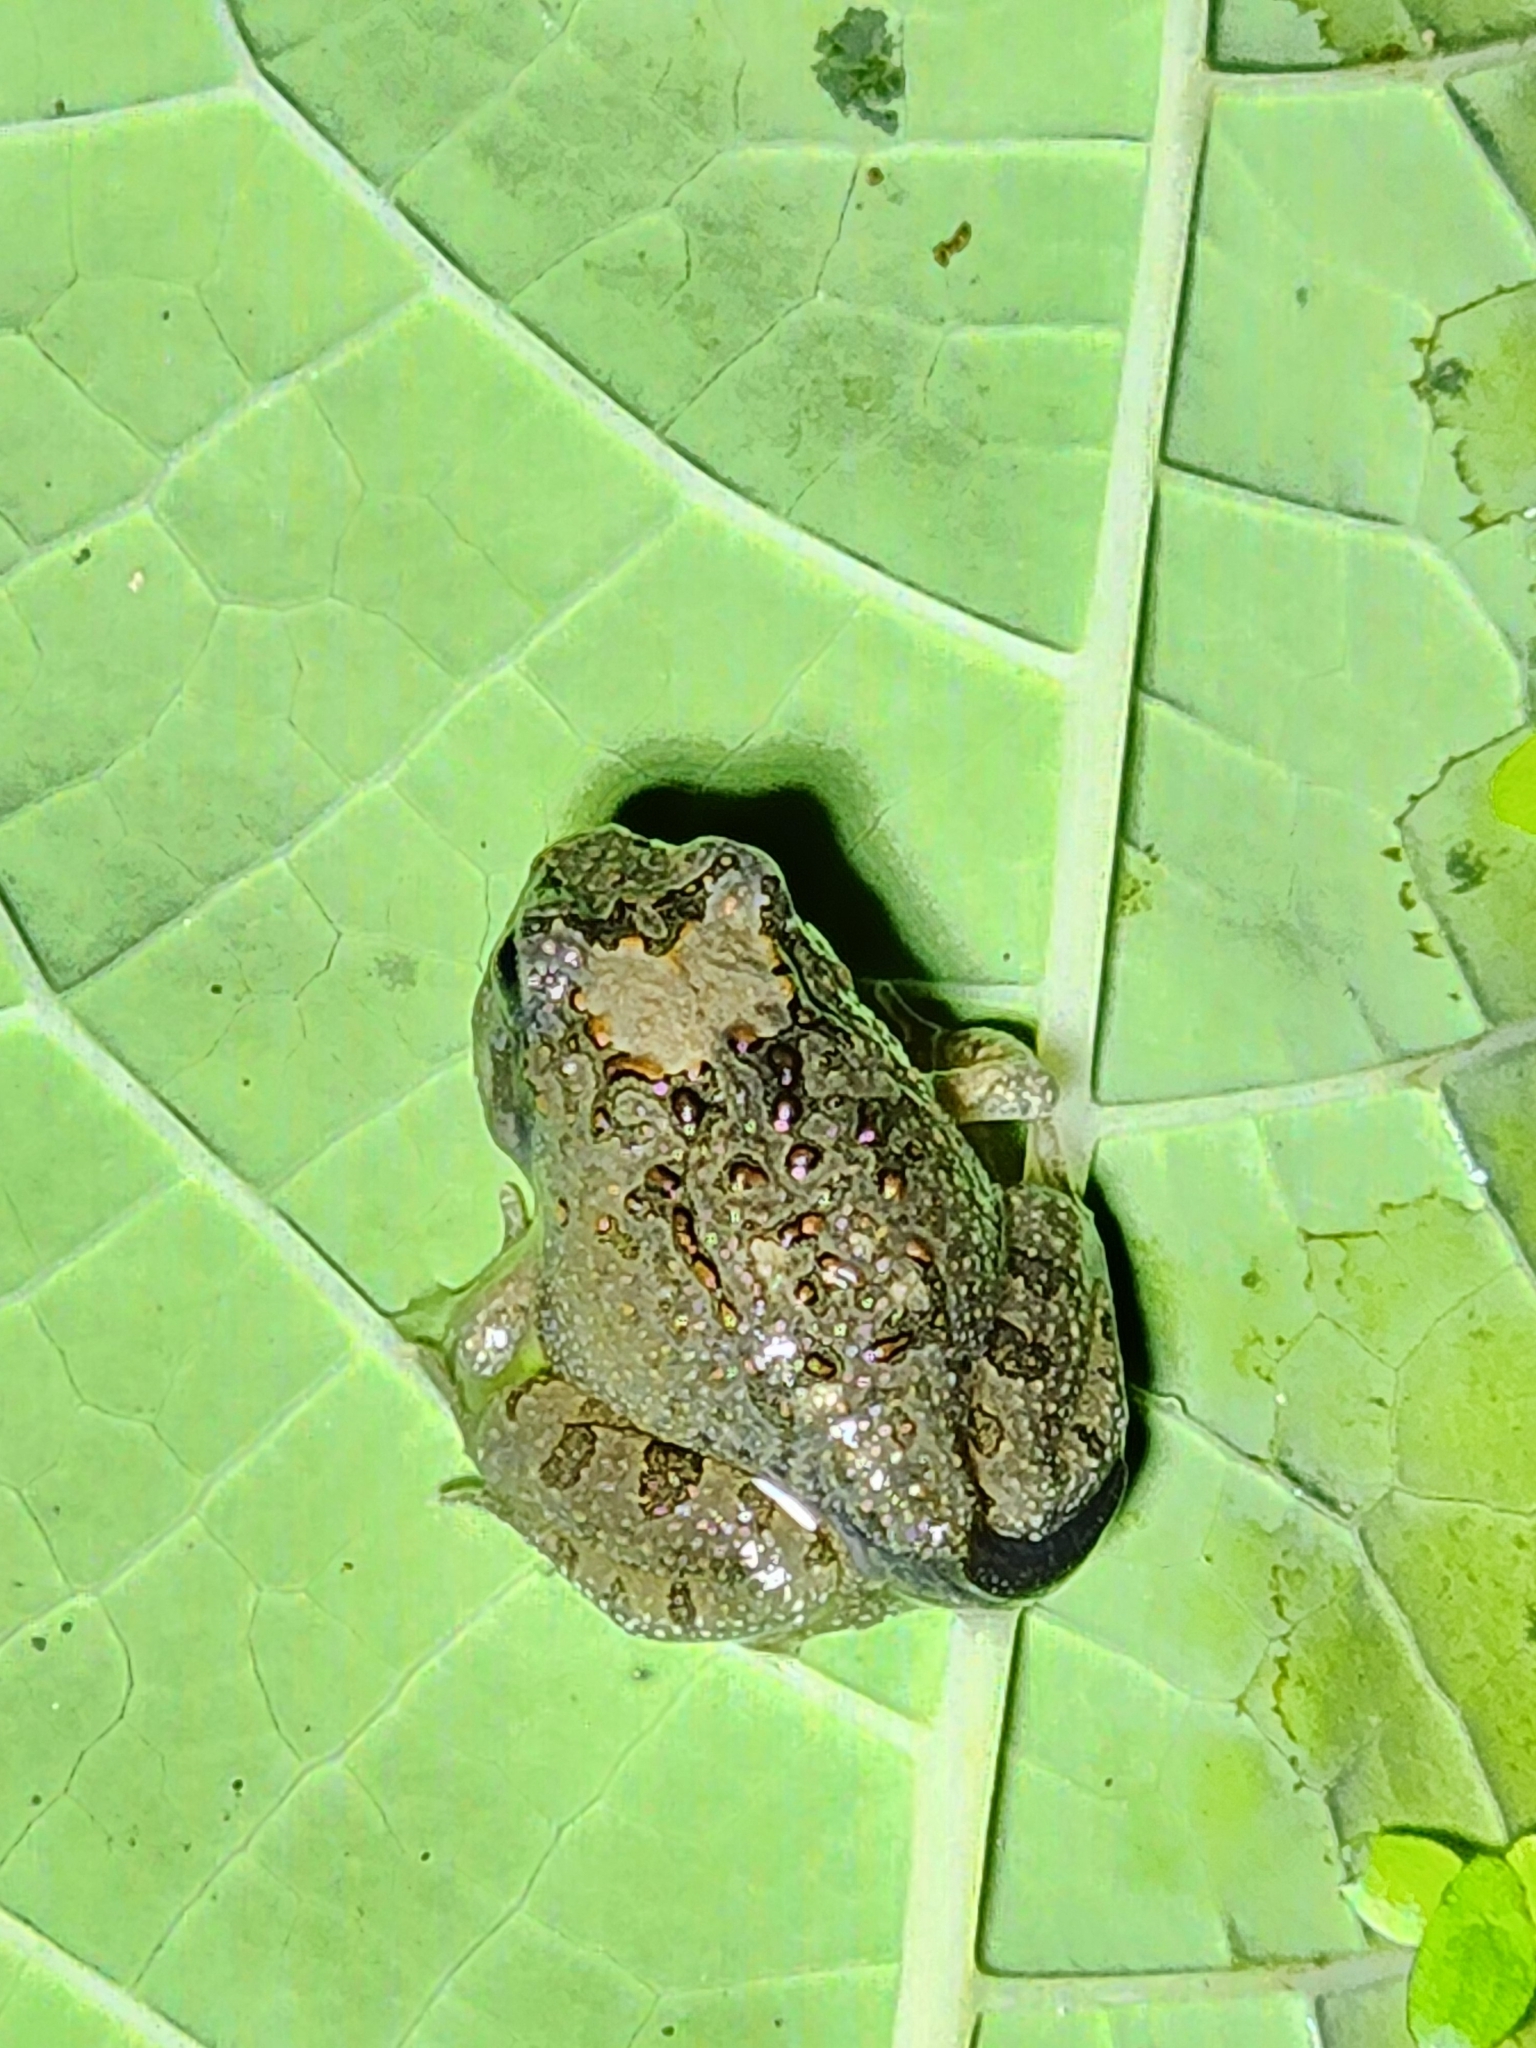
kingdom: Animalia
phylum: Chordata
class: Amphibia
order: Anura
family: Limnodynastidae
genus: Platyplectrum
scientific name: Platyplectrum ornatum
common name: Ornate burrowing frog
